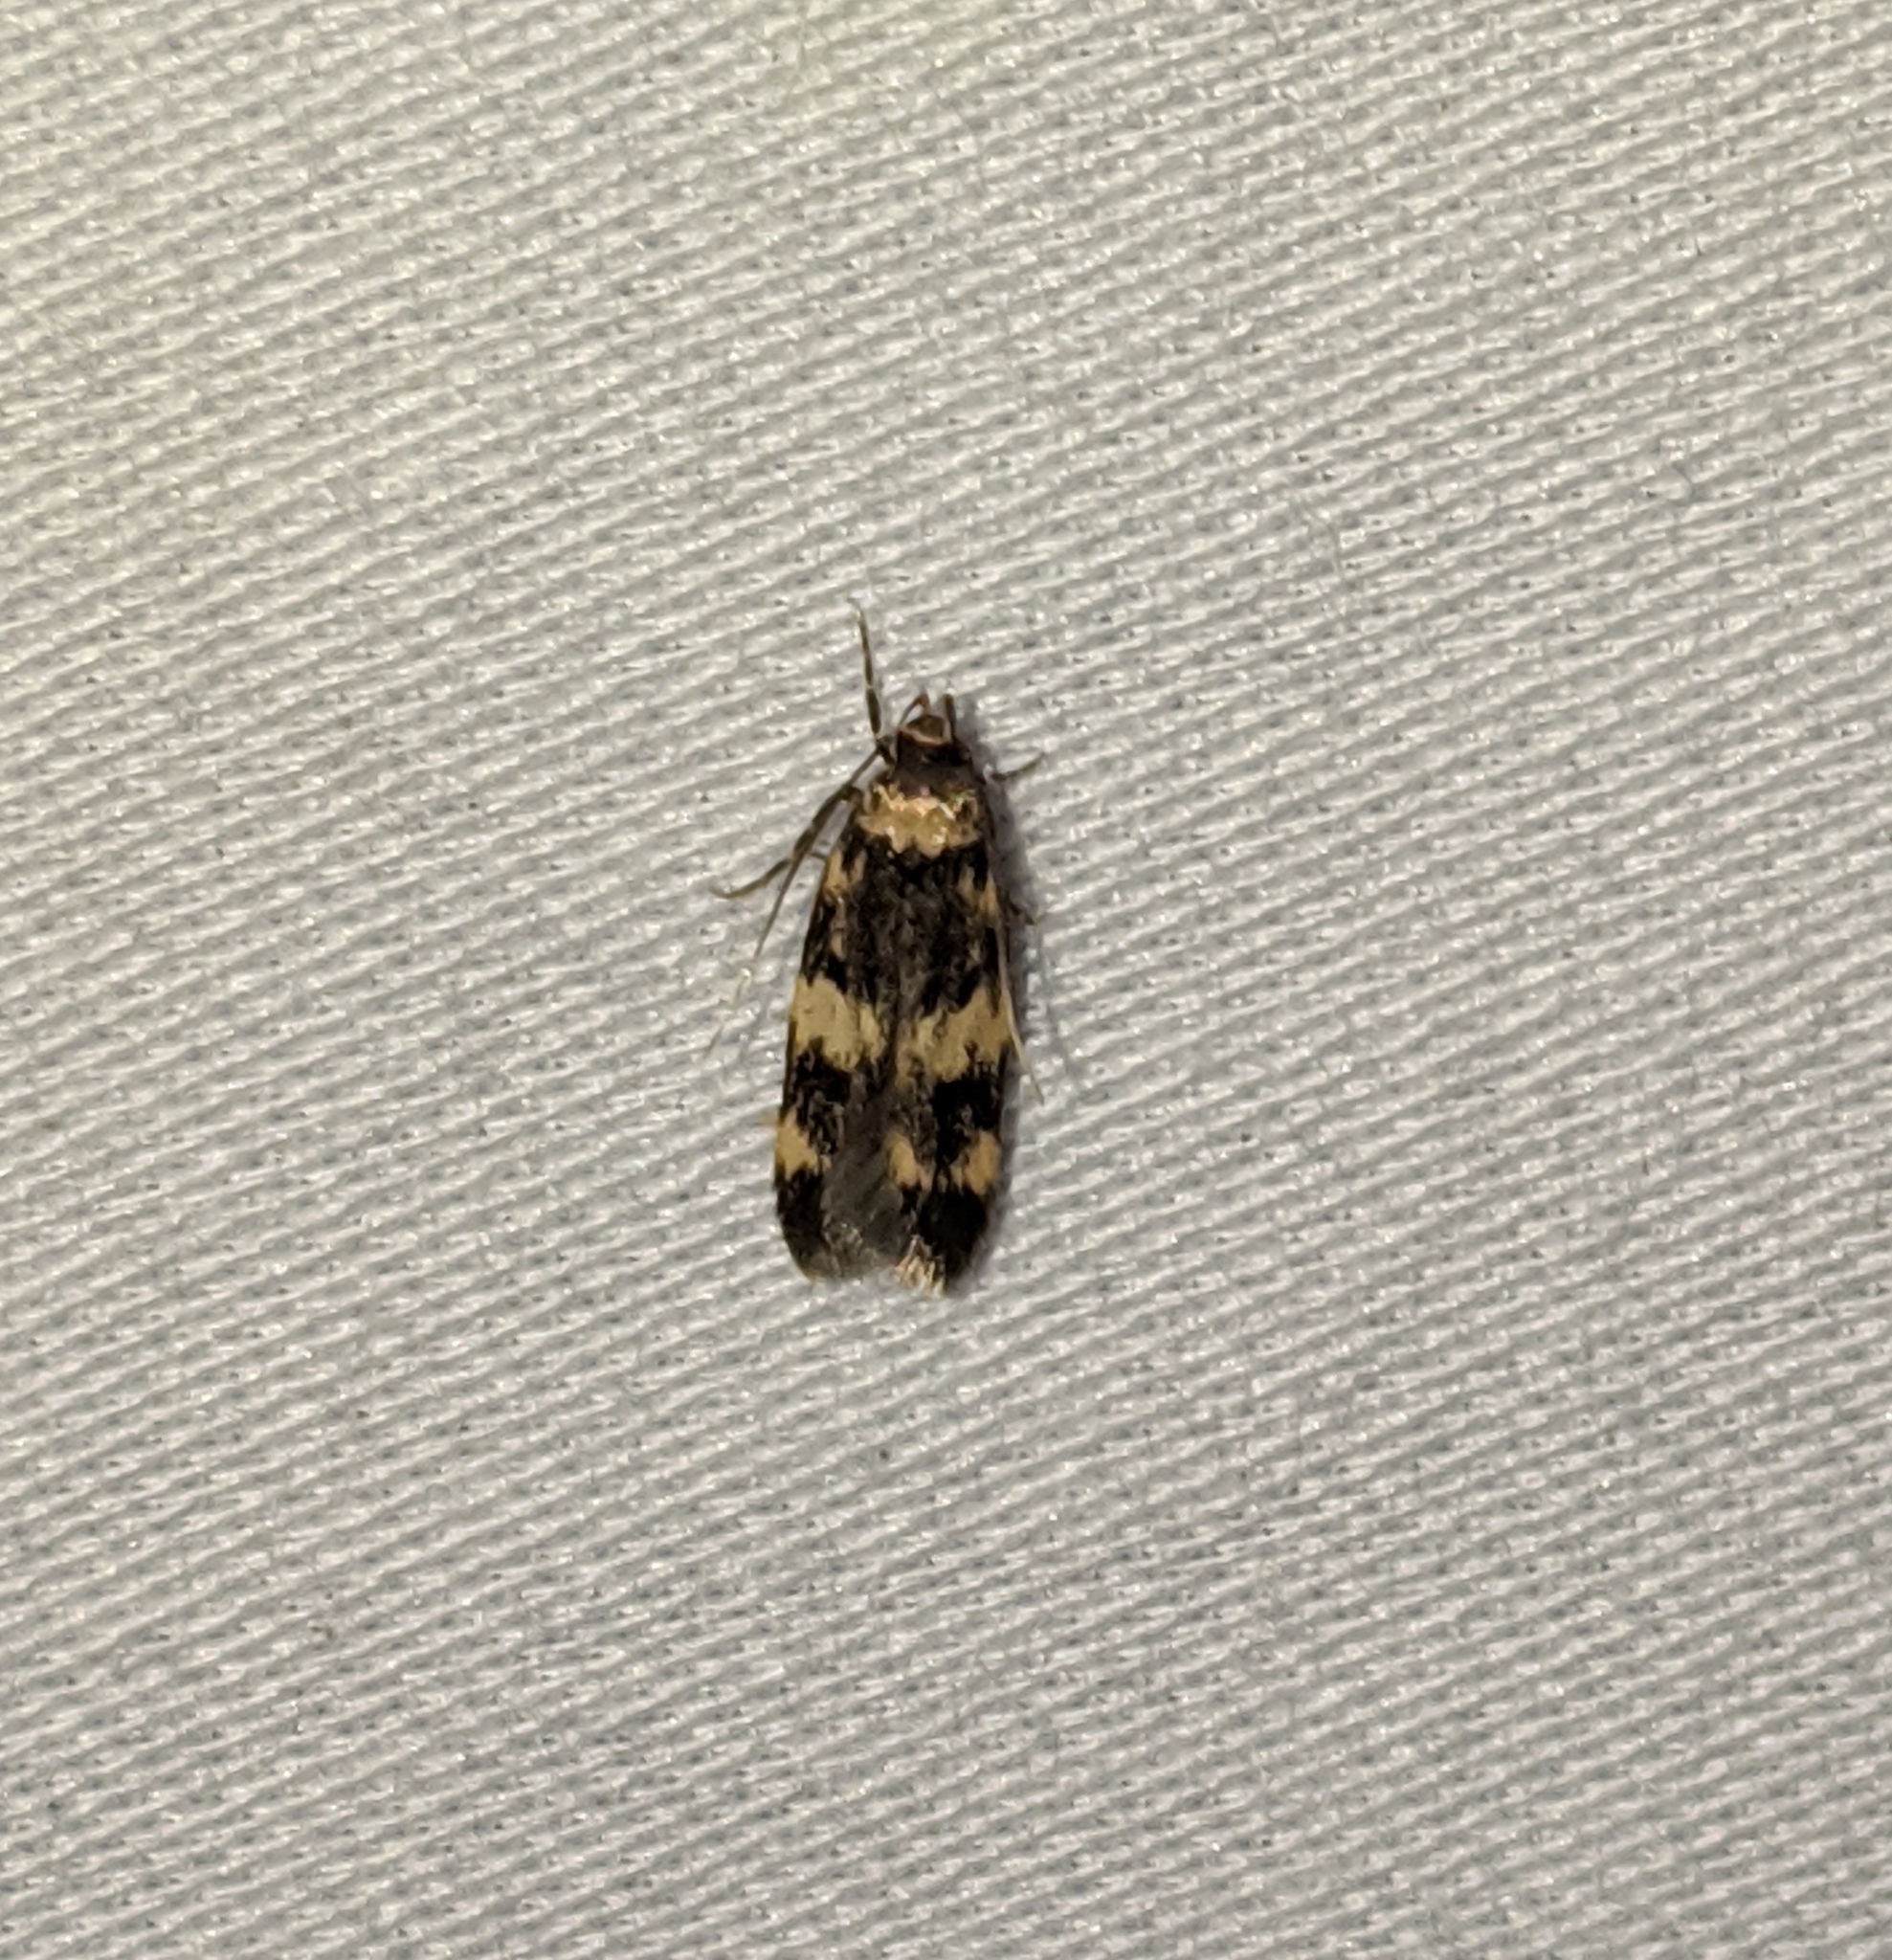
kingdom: Animalia
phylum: Arthropoda
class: Insecta
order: Lepidoptera
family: Autostichidae
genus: Oegoconia
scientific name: Oegoconia quadripuncta
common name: Four-spotted obscure
